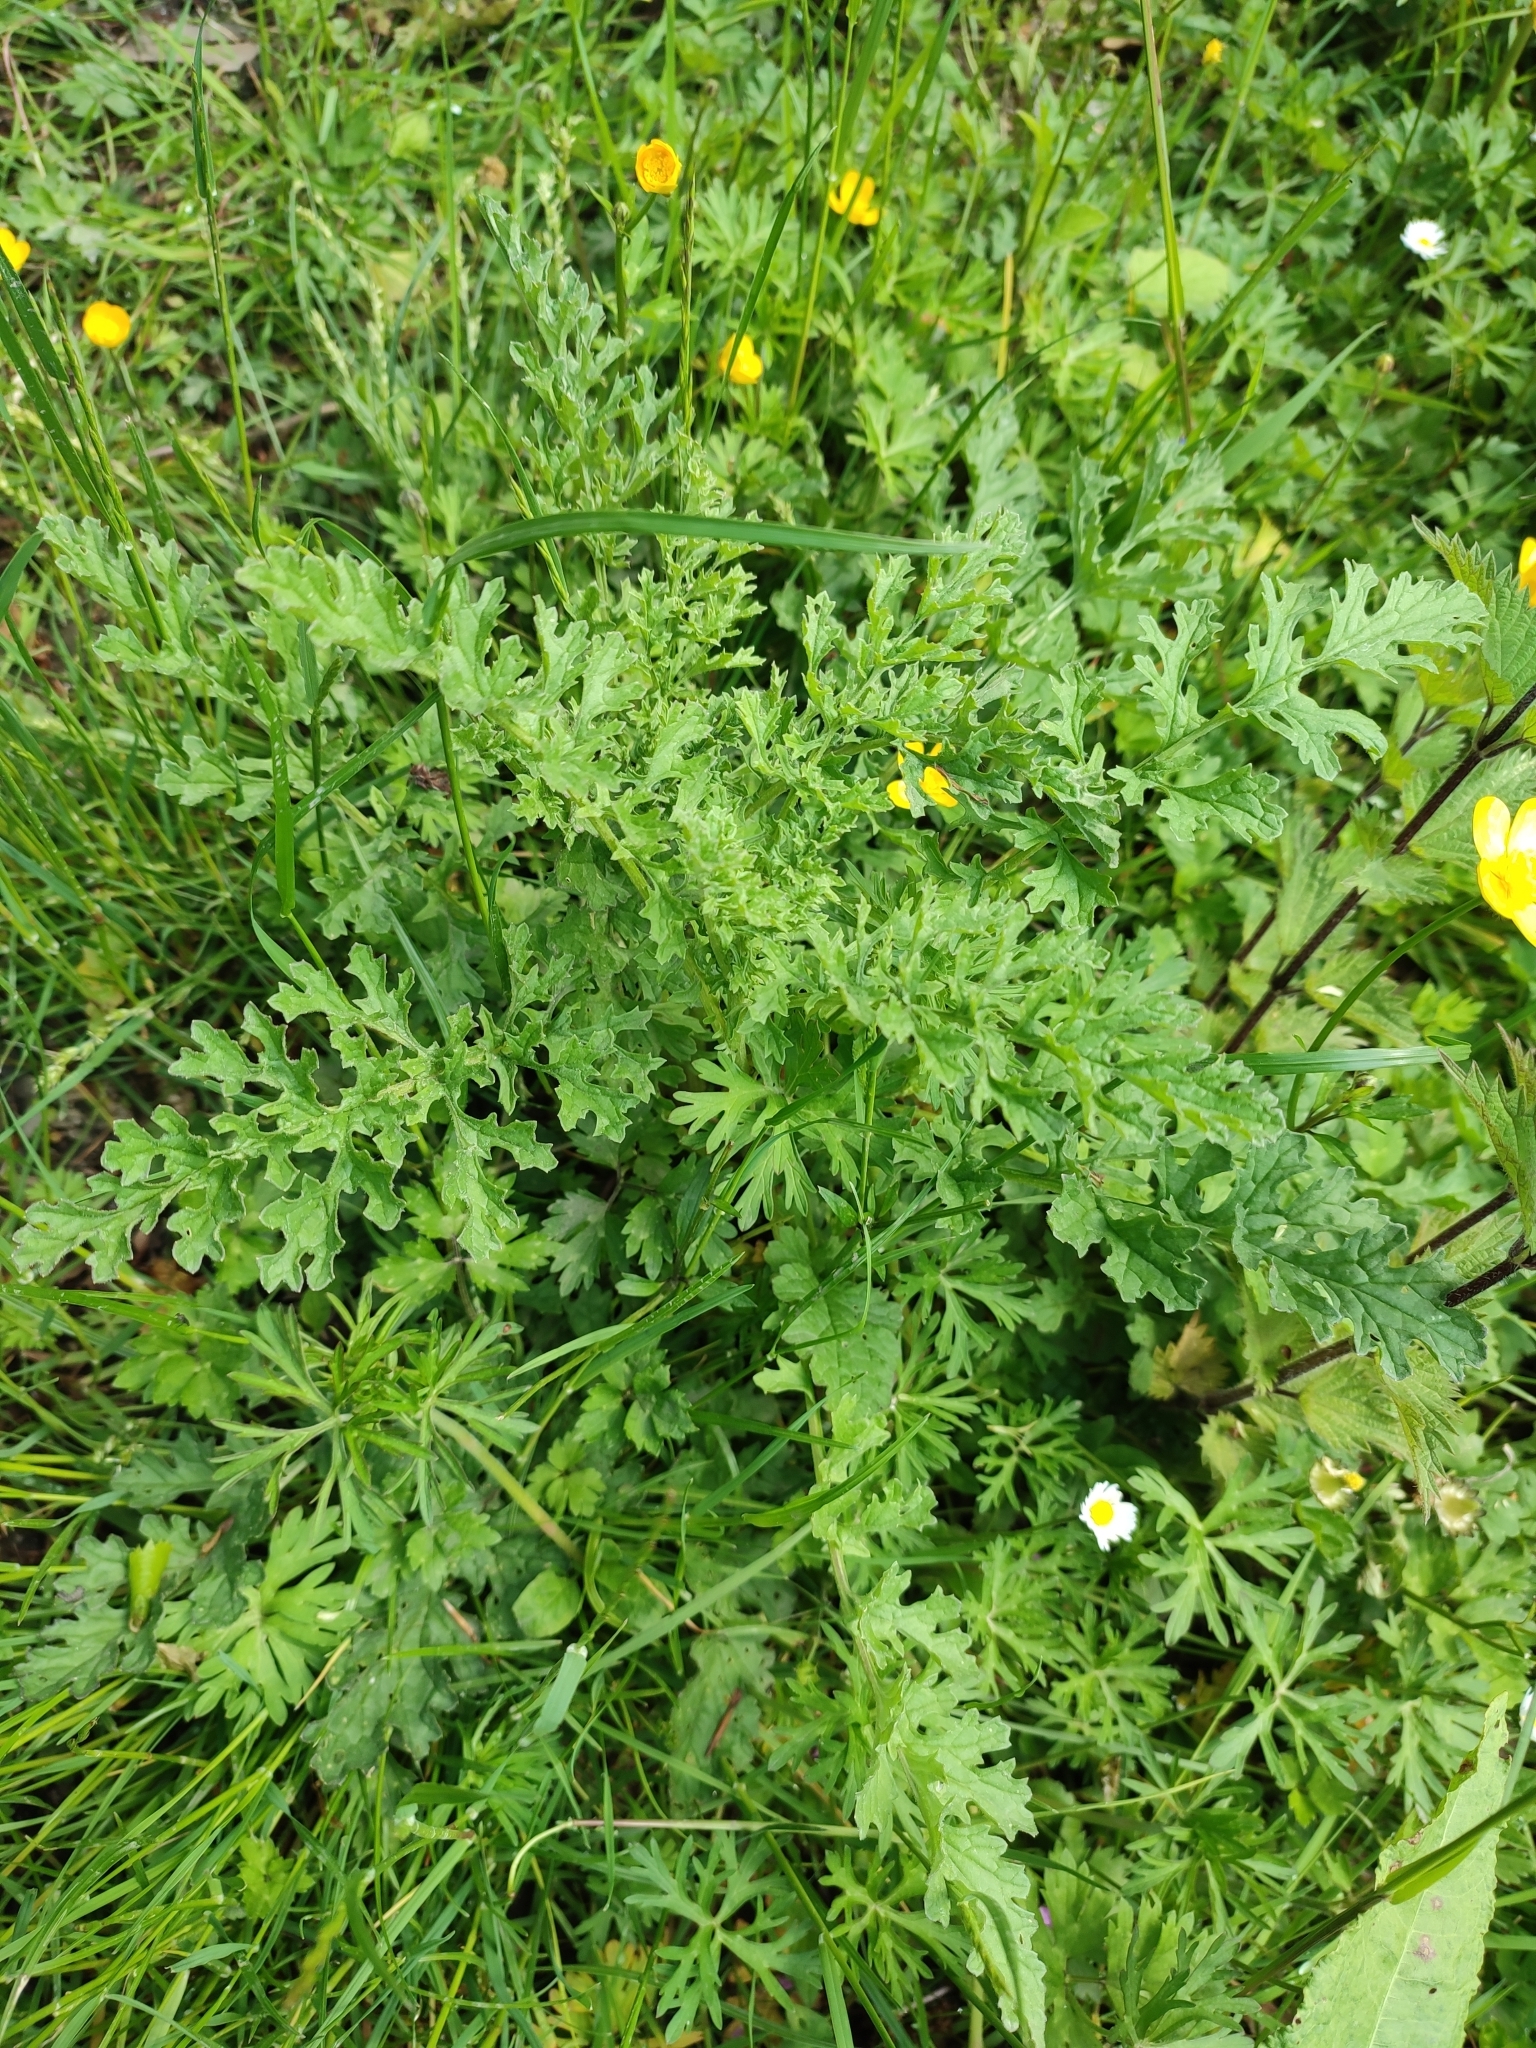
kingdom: Plantae
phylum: Tracheophyta
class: Magnoliopsida
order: Asterales
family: Asteraceae
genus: Jacobaea
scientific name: Jacobaea vulgaris
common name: Stinking willie
